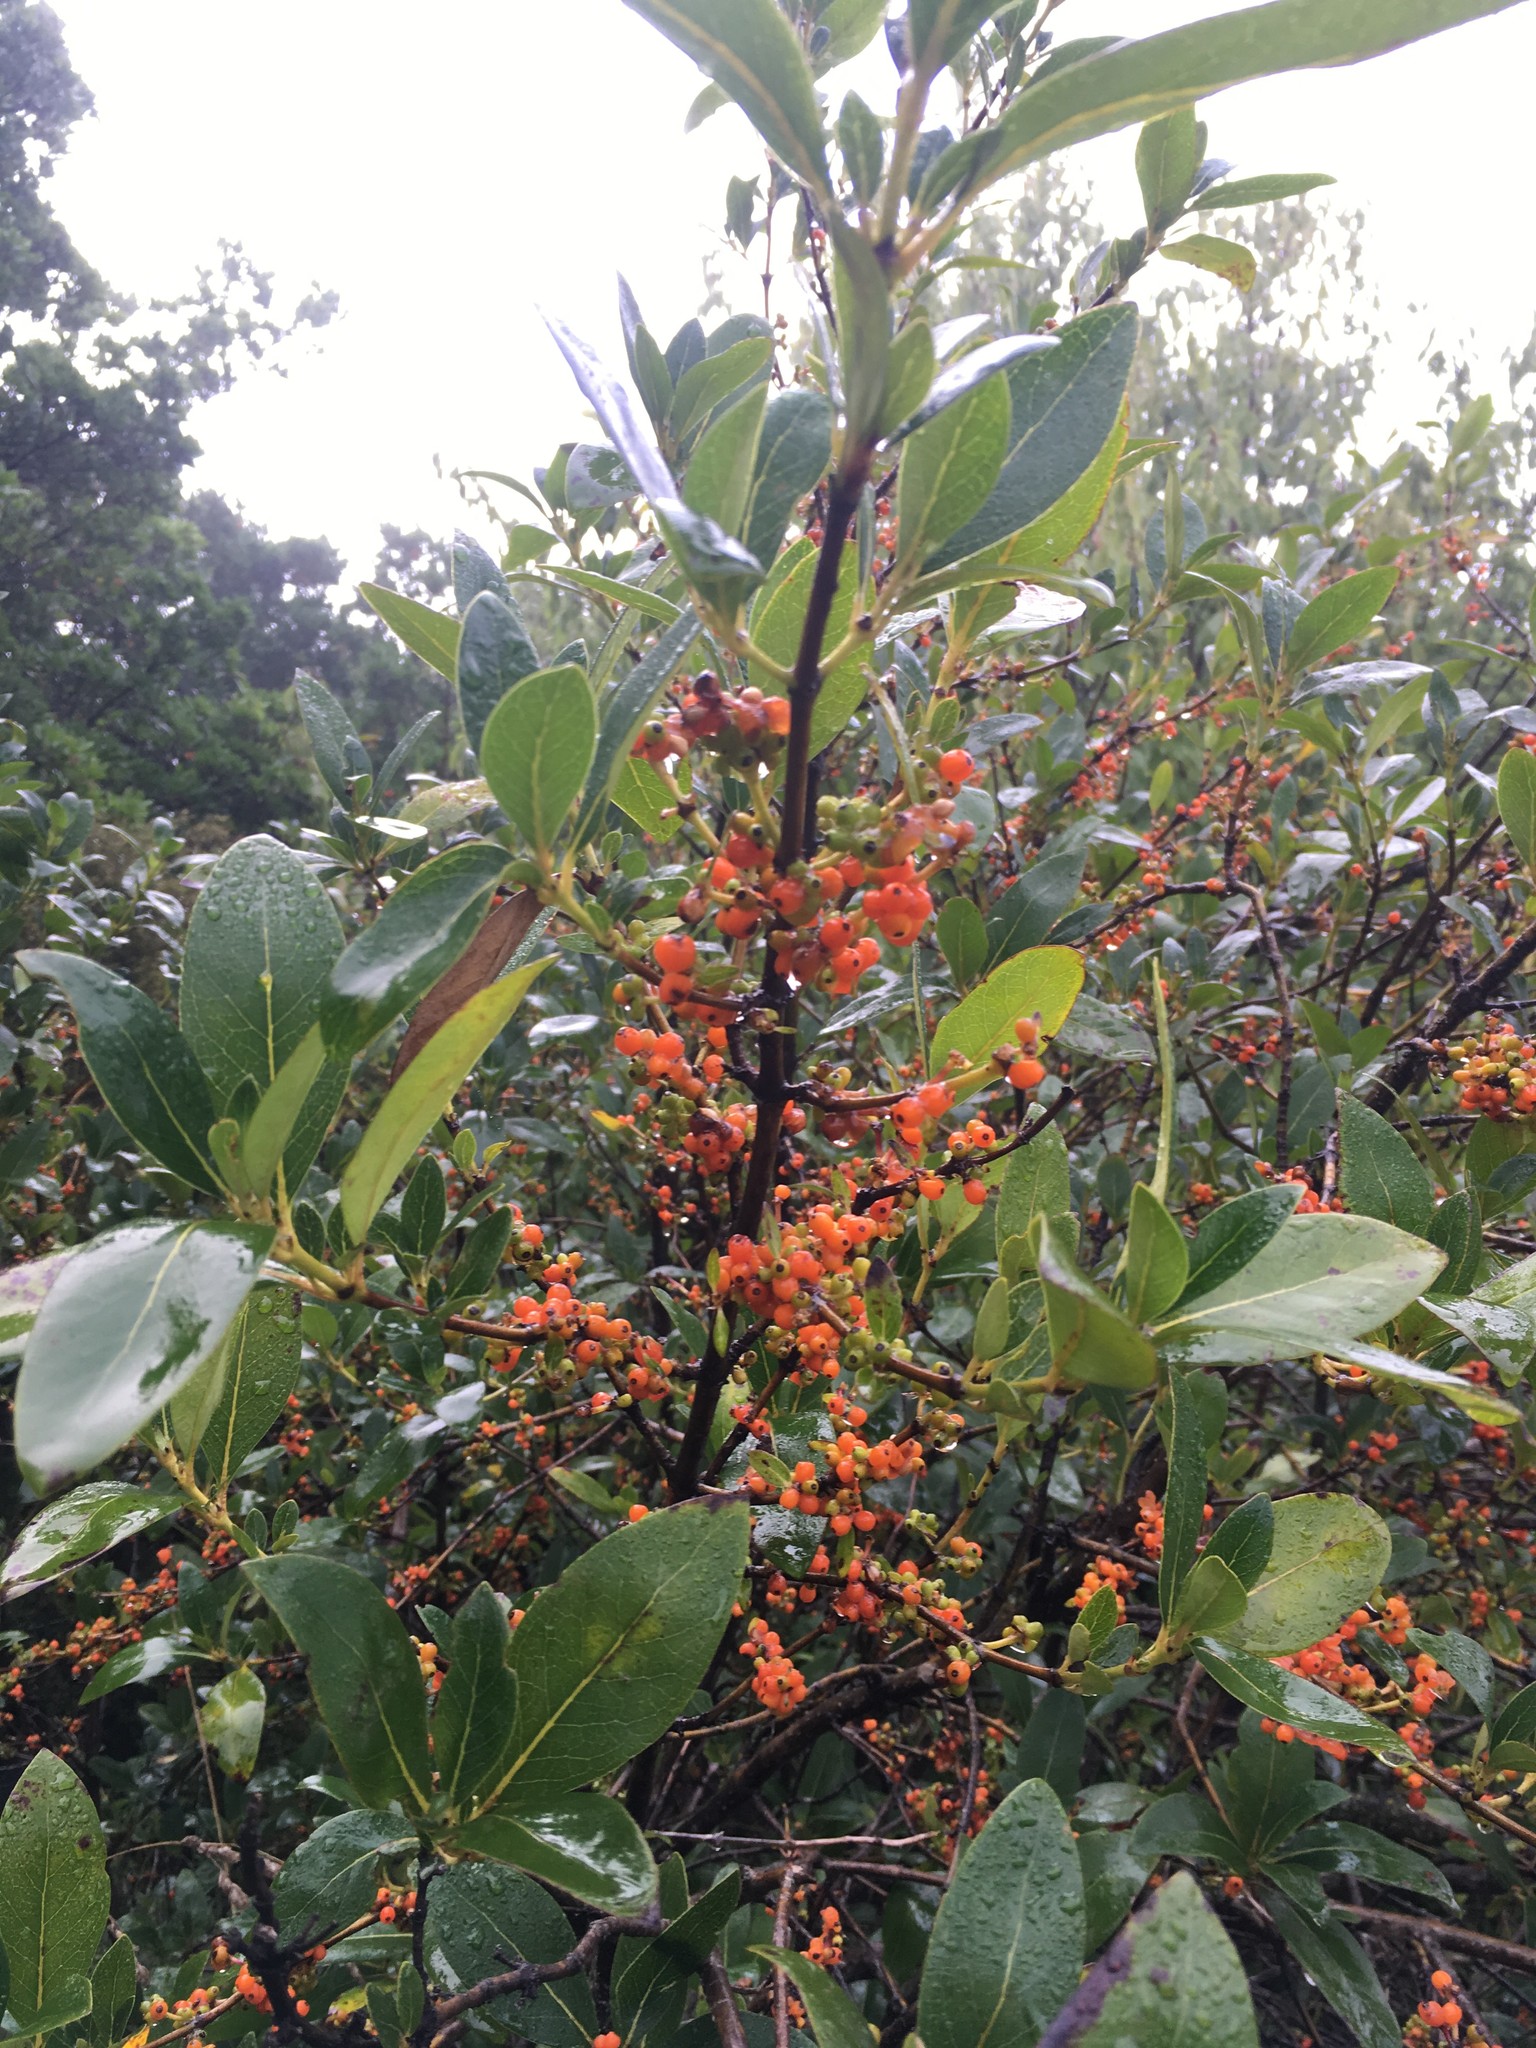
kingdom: Plantae
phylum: Tracheophyta
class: Magnoliopsida
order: Gentianales
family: Rubiaceae
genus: Coprosma
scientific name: Coprosma robusta
